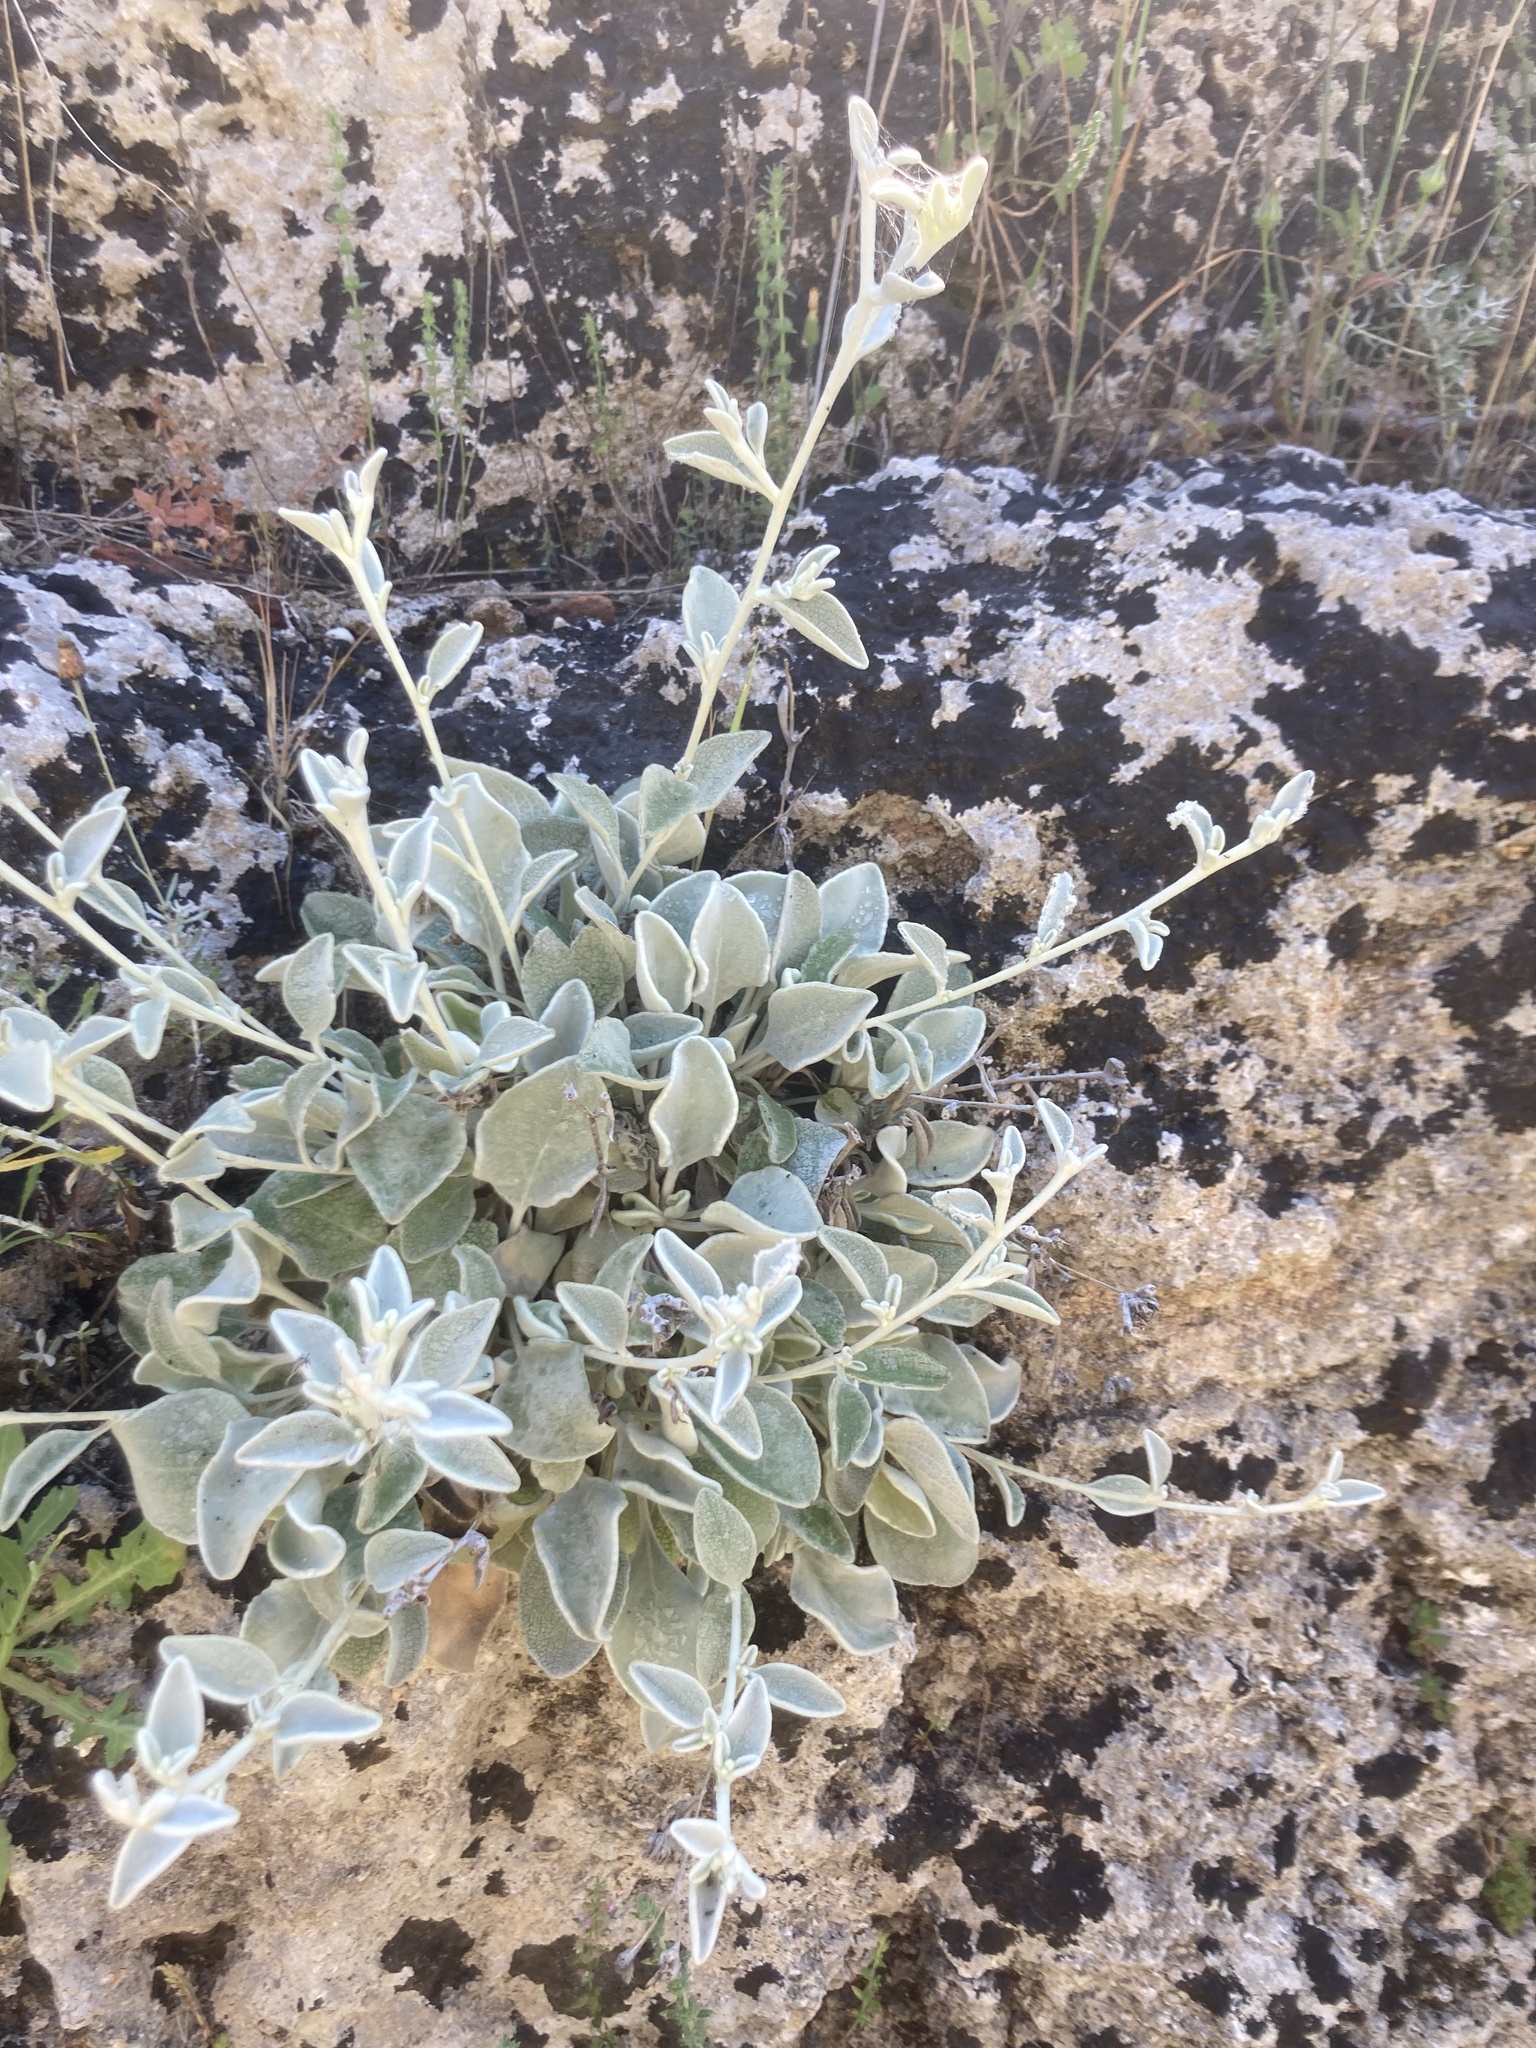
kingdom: Plantae
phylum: Tracheophyta
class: Magnoliopsida
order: Asterales
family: Asteraceae
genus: Pentanema
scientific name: Pentanema verbascifolium
